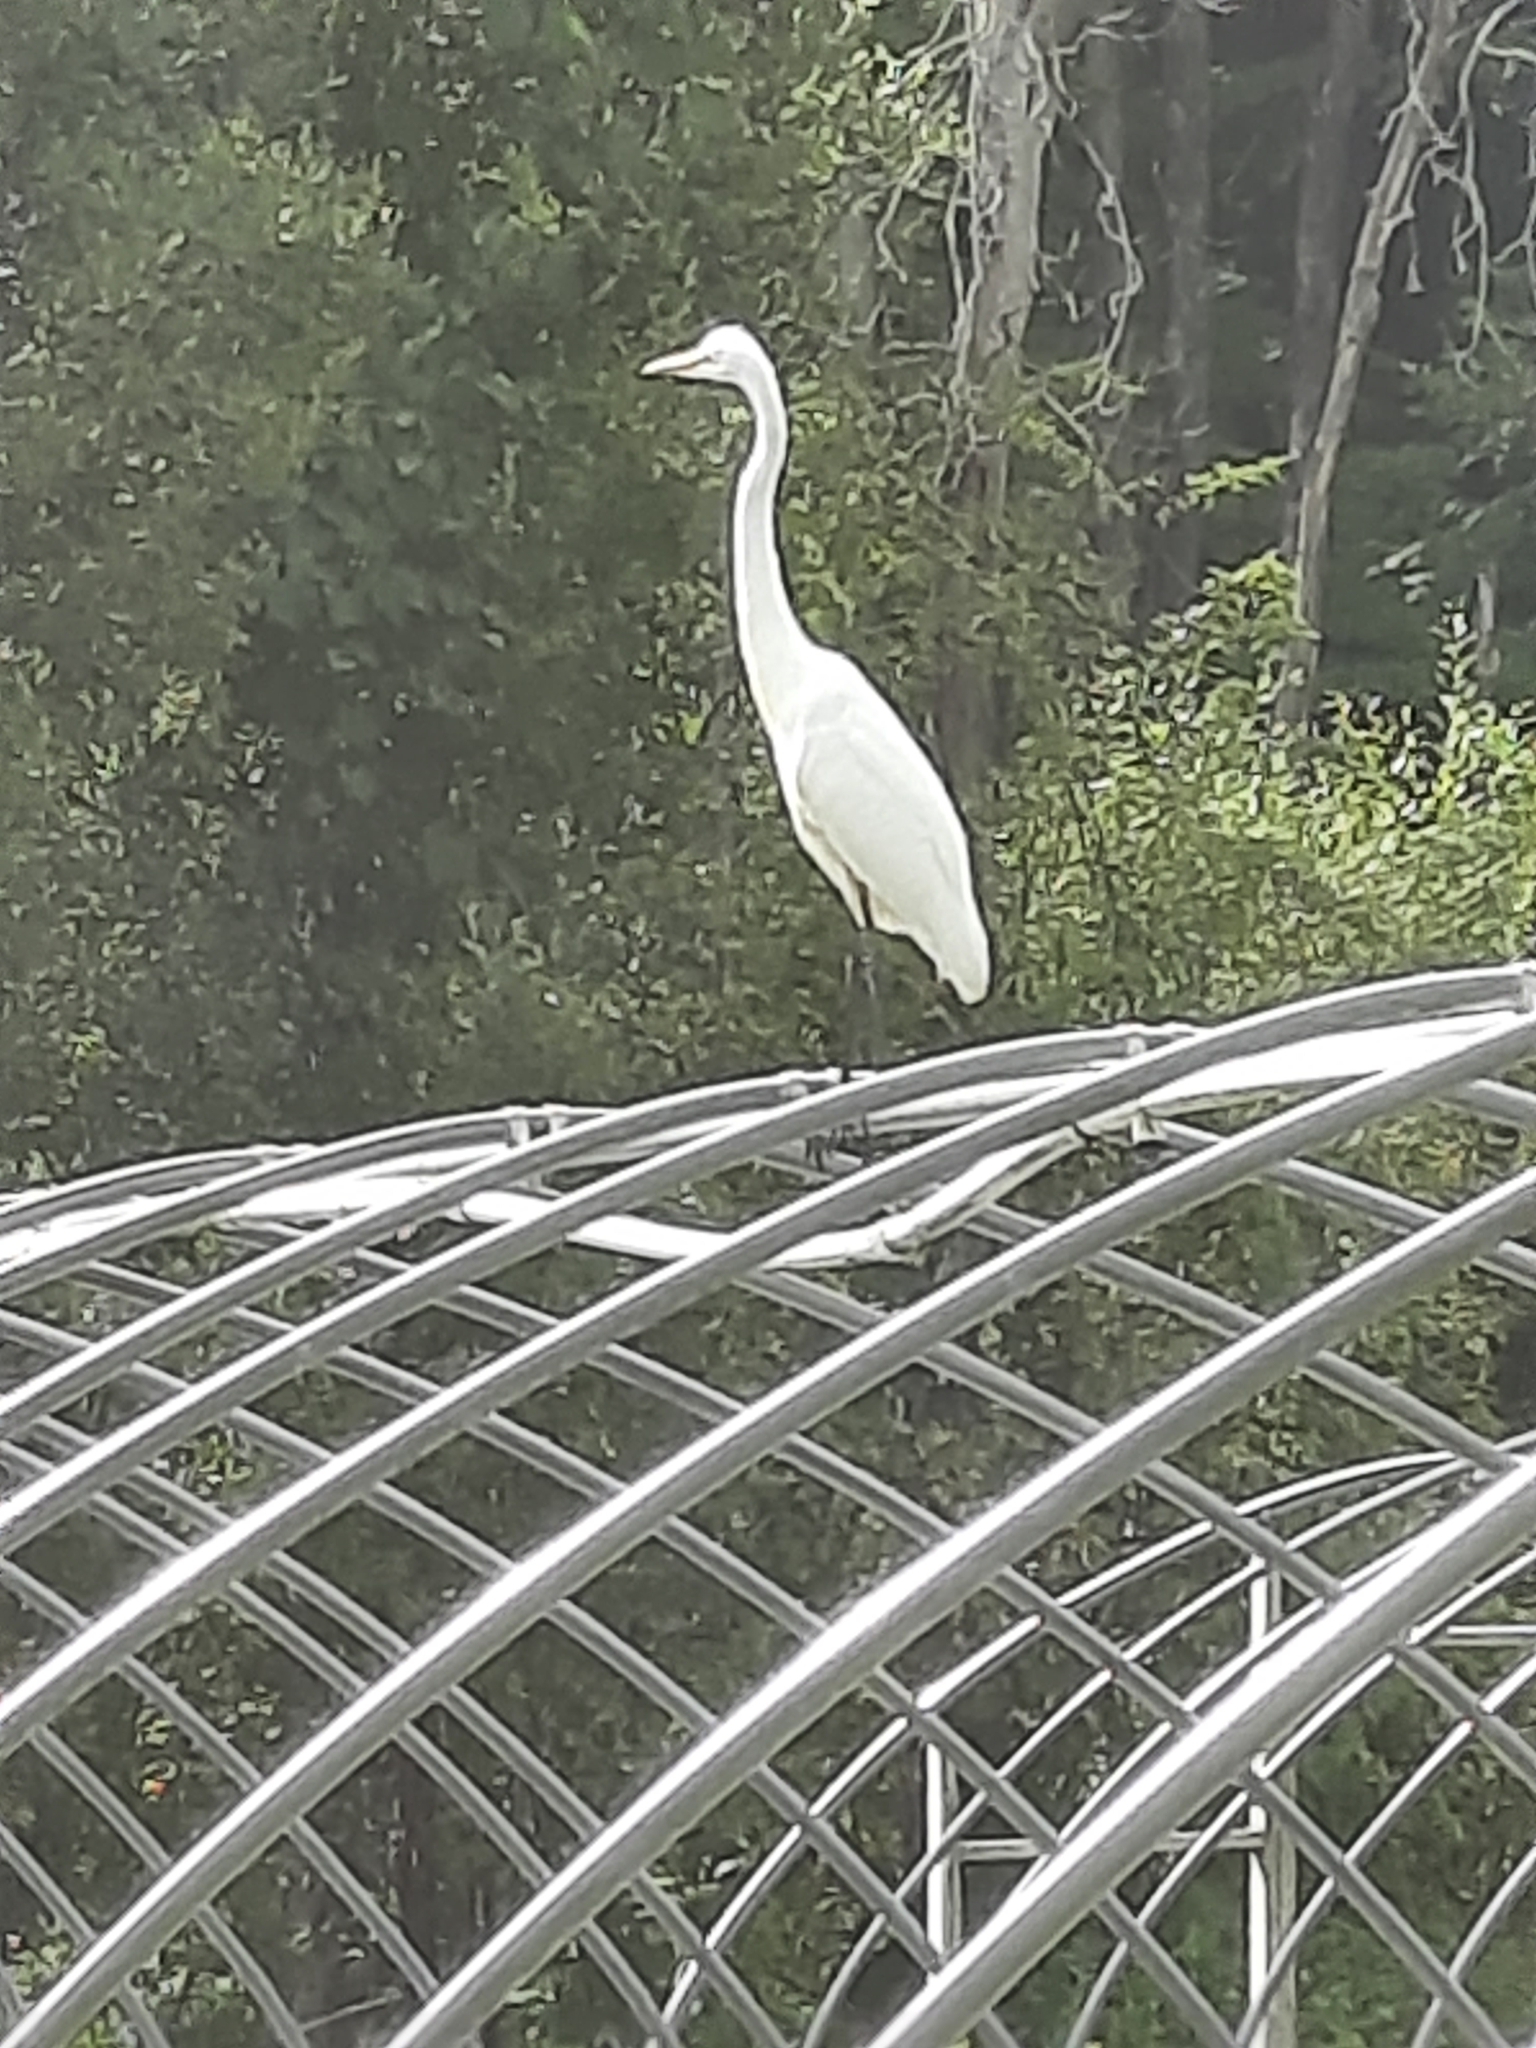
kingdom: Animalia
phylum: Chordata
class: Aves
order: Pelecaniformes
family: Ardeidae
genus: Ardea
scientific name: Ardea alba
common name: Great egret
